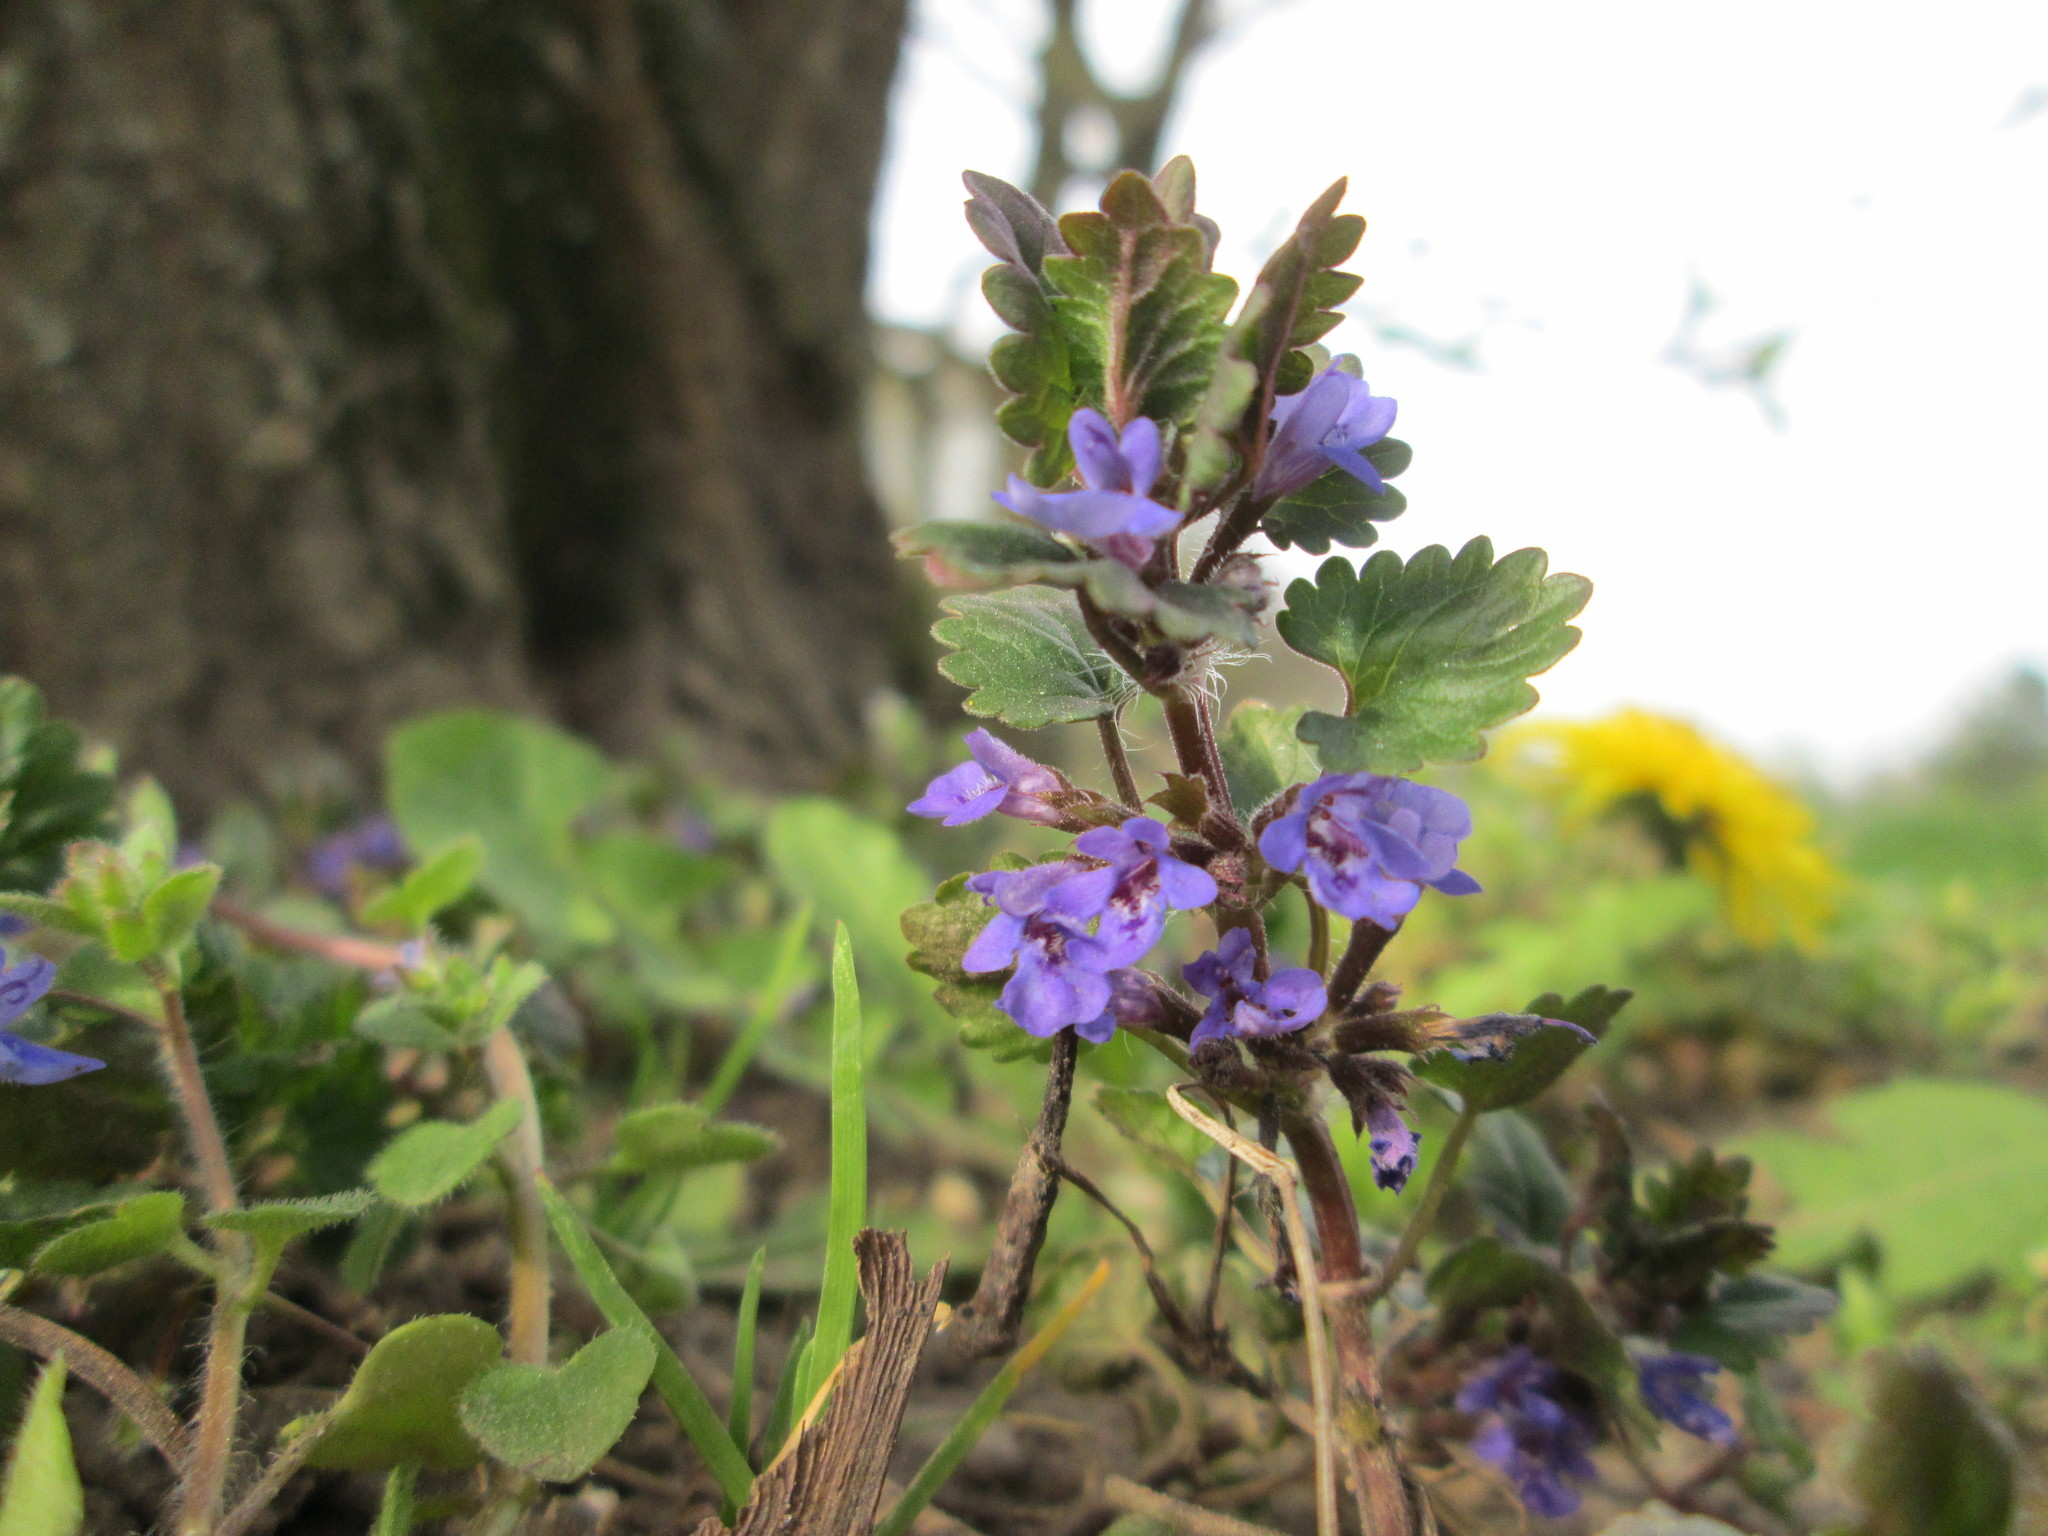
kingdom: Plantae
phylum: Tracheophyta
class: Magnoliopsida
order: Lamiales
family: Lamiaceae
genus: Glechoma
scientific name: Glechoma hederacea
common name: Ground ivy
